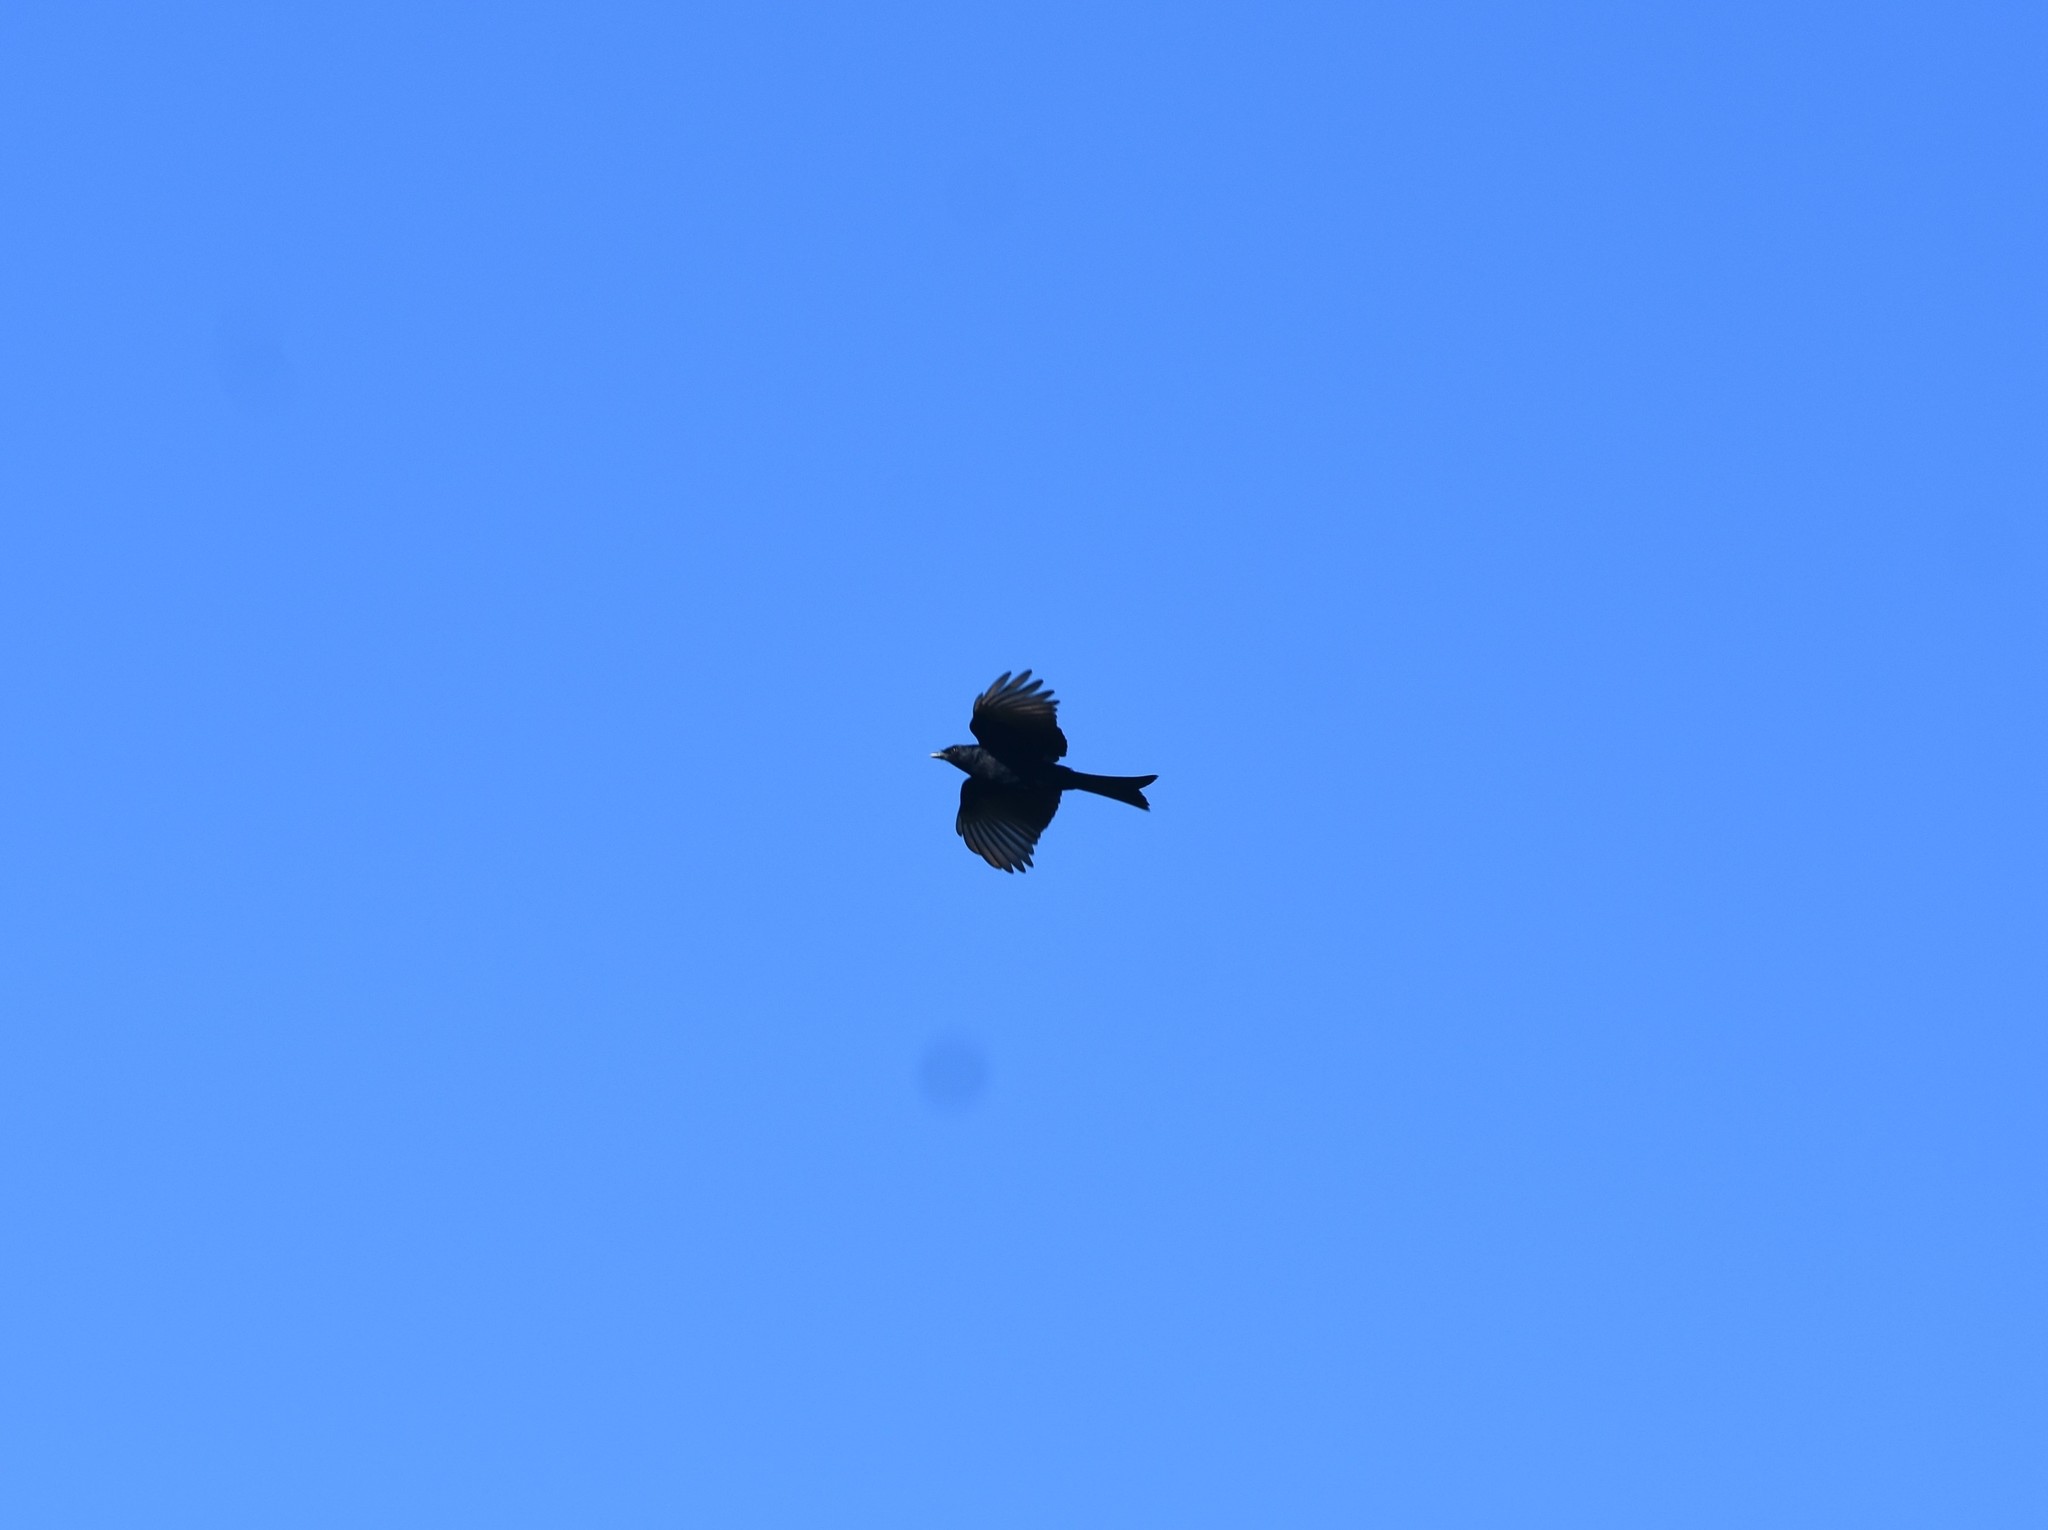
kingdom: Animalia
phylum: Chordata
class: Aves
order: Passeriformes
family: Dicruridae
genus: Dicrurus
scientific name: Dicrurus adsimilis
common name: Fork-tailed drongo
